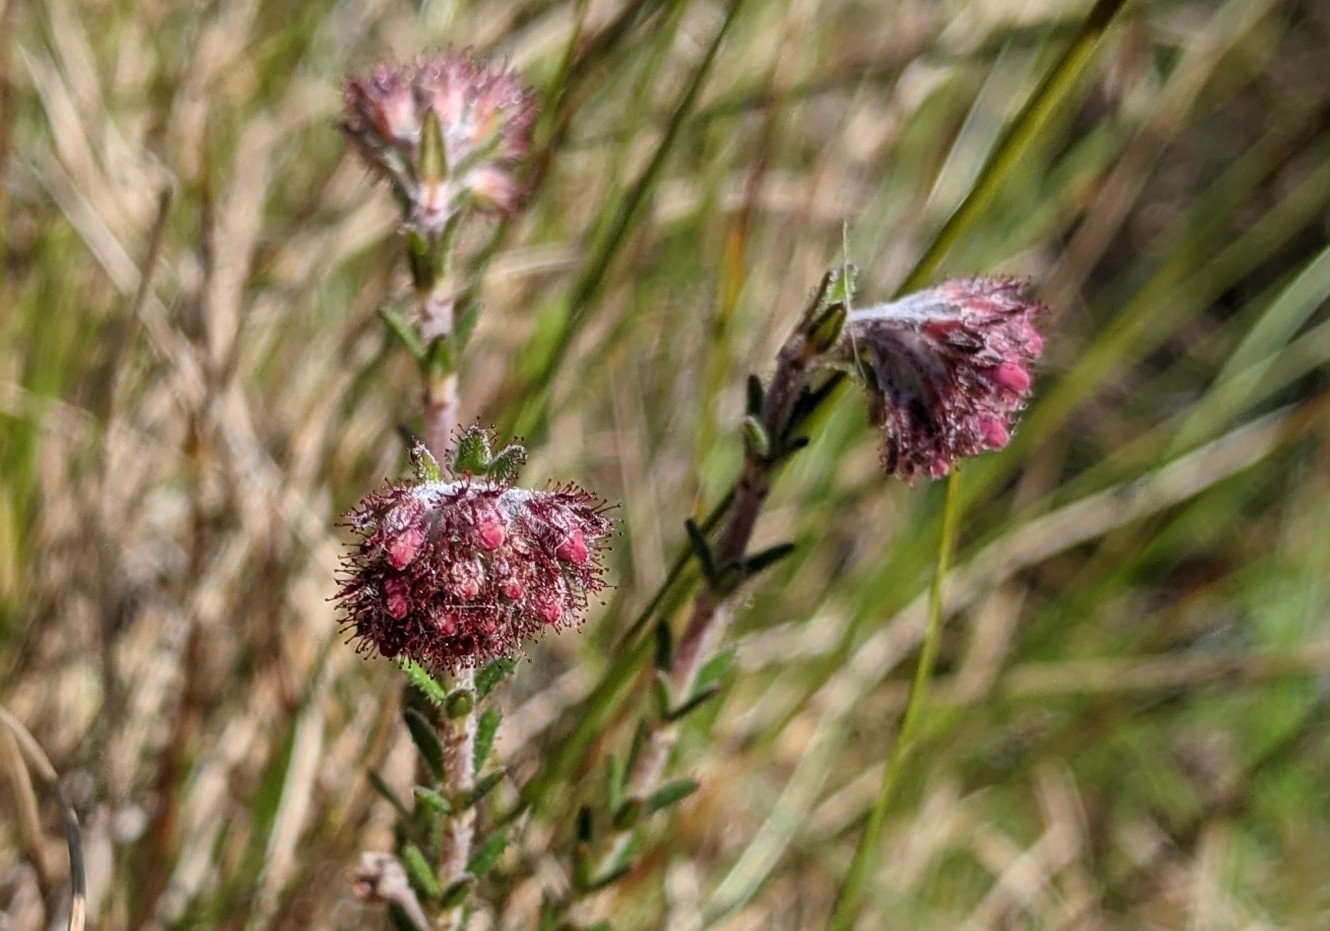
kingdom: Plantae
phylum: Tracheophyta
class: Magnoliopsida
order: Ericales
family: Ericaceae
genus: Erica
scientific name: Erica tetralix
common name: Cross-leaved heath
